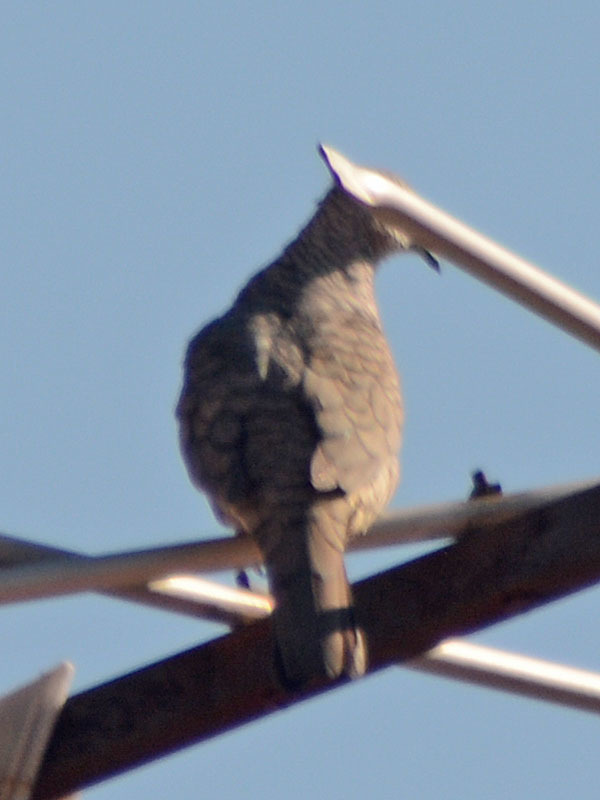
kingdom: Animalia
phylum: Chordata
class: Aves
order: Columbiformes
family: Columbidae
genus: Columbina
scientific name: Columbina inca
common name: Inca dove
